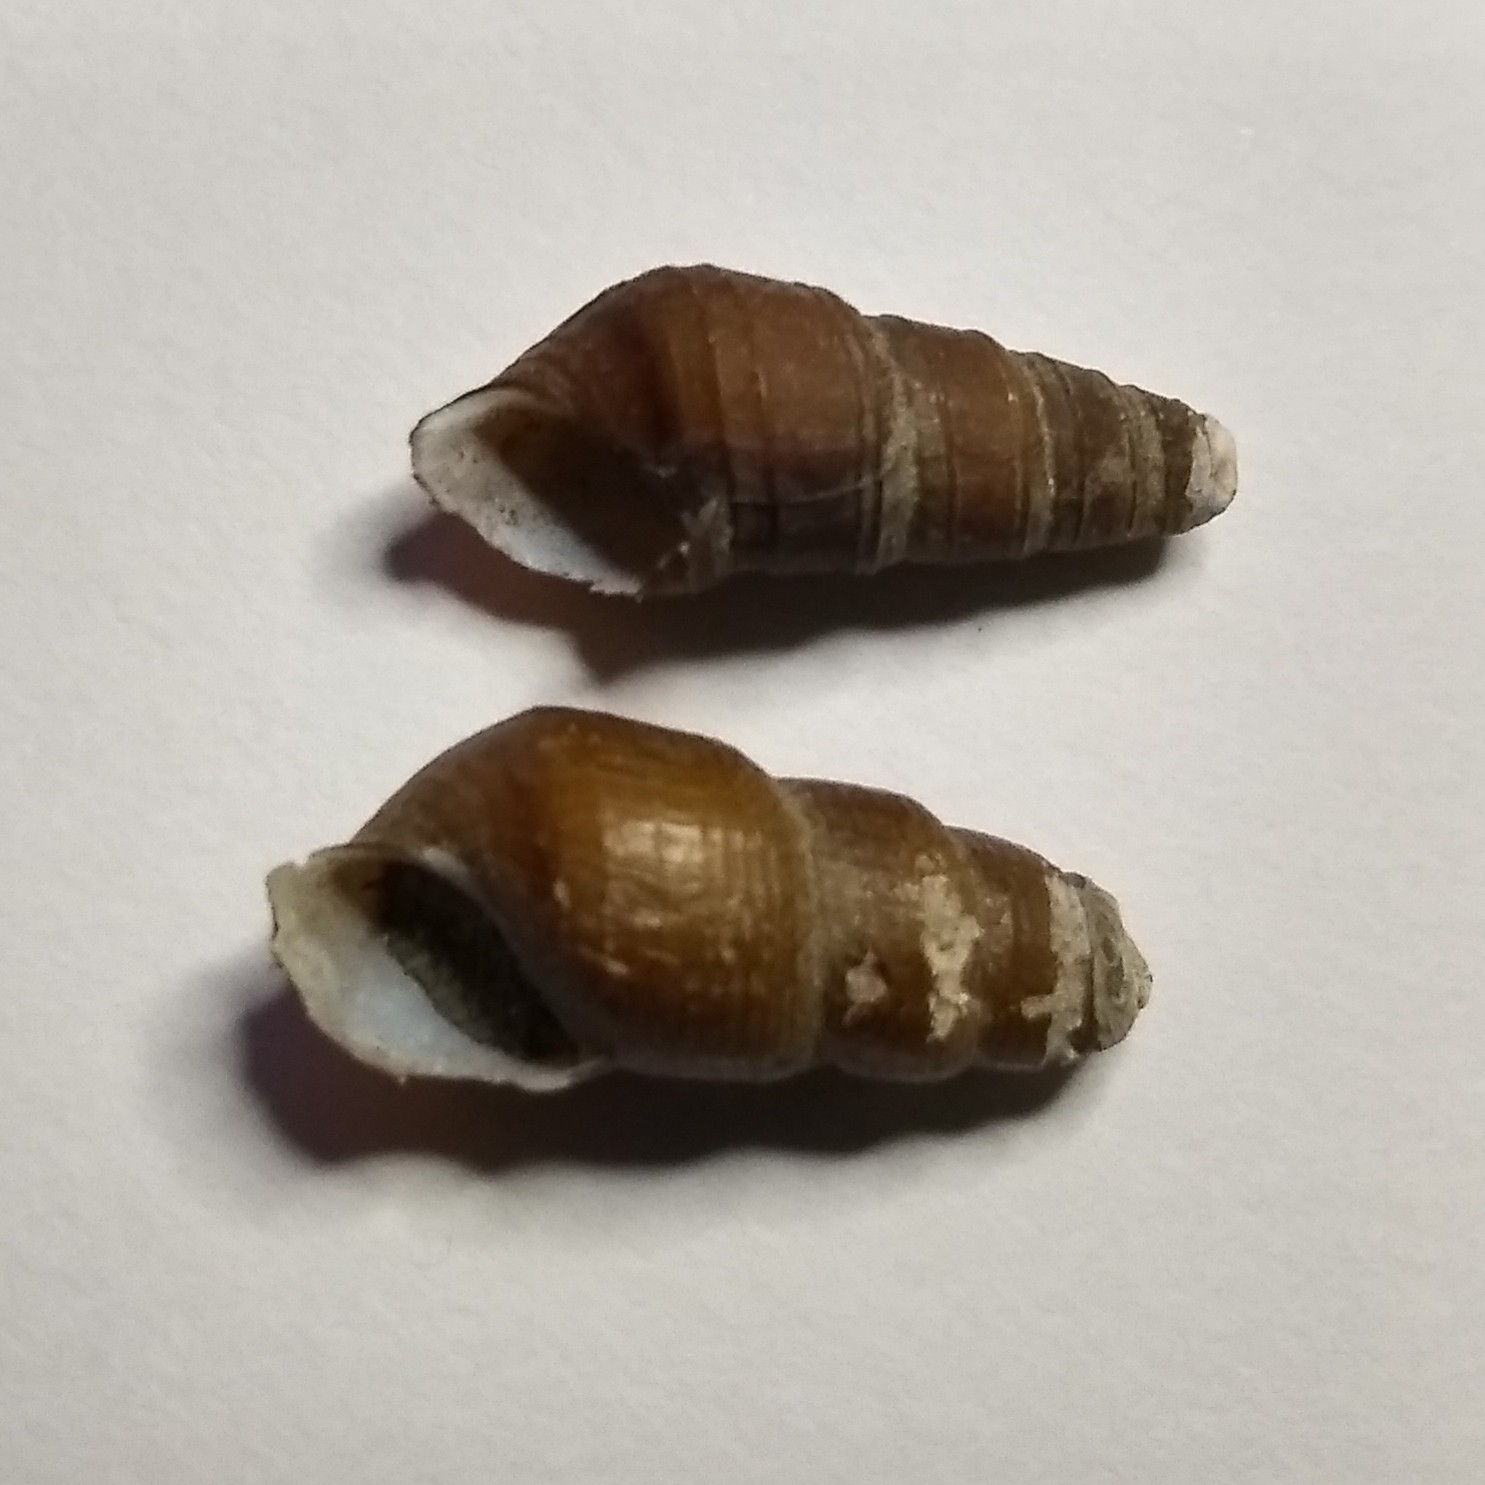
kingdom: Animalia
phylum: Mollusca
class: Gastropoda
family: Pleuroceridae
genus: Elimia
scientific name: Elimia virginica
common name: Piedmont elimia
